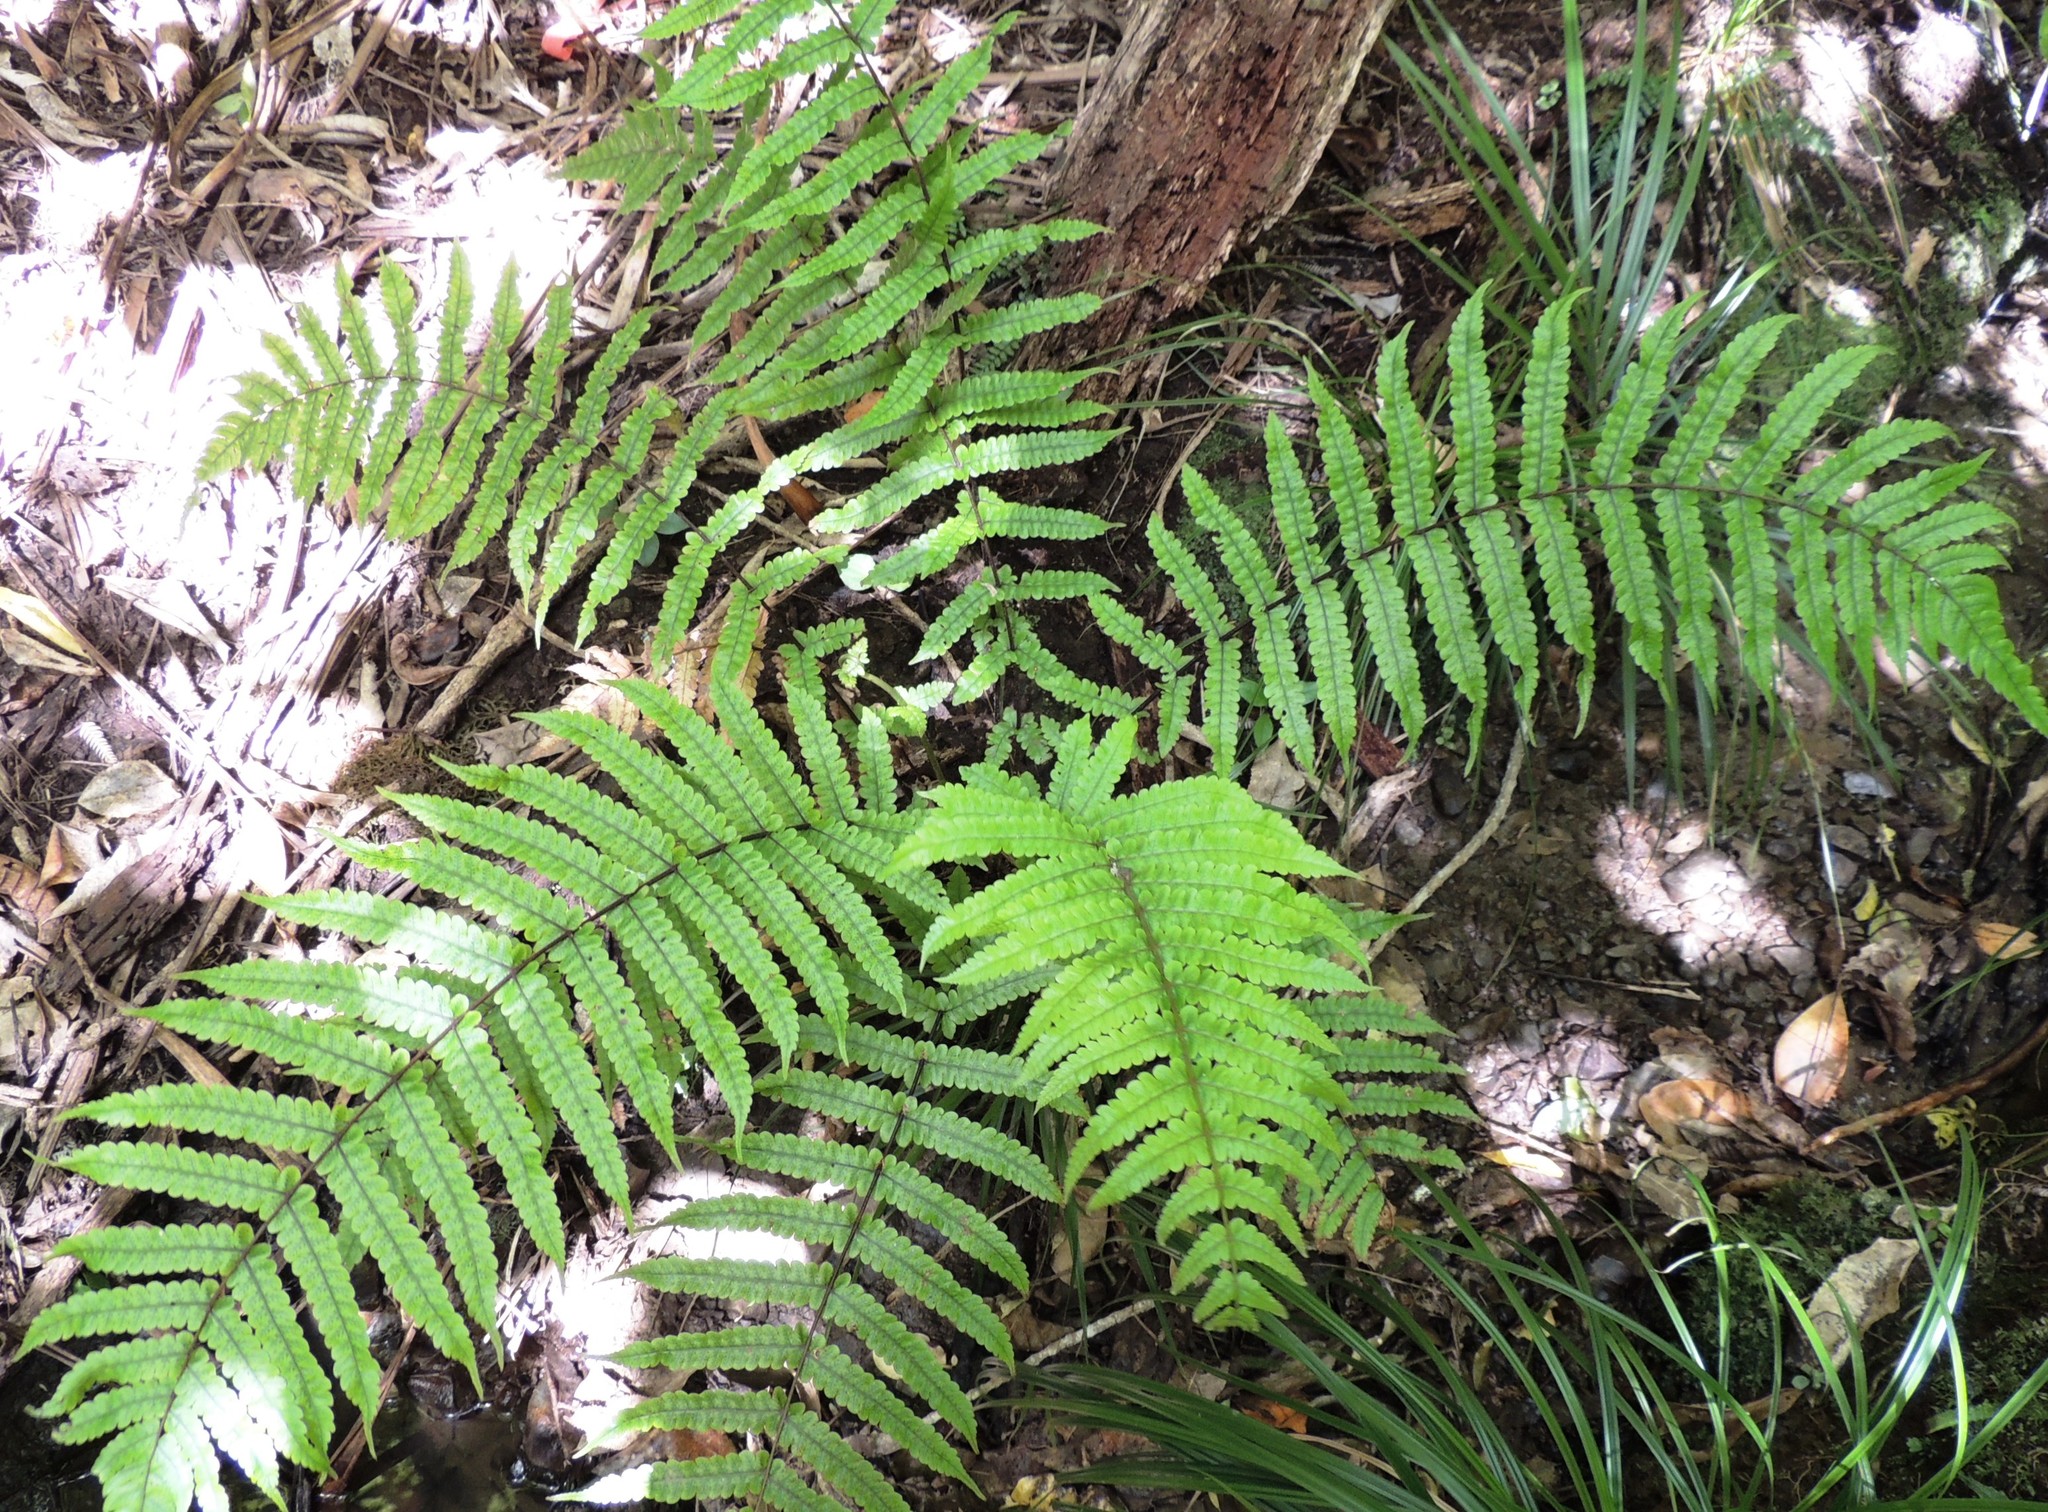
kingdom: Plantae
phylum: Tracheophyta
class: Polypodiopsida
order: Polypodiales
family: Thelypteridaceae
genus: Pakau
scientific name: Pakau pennigera
